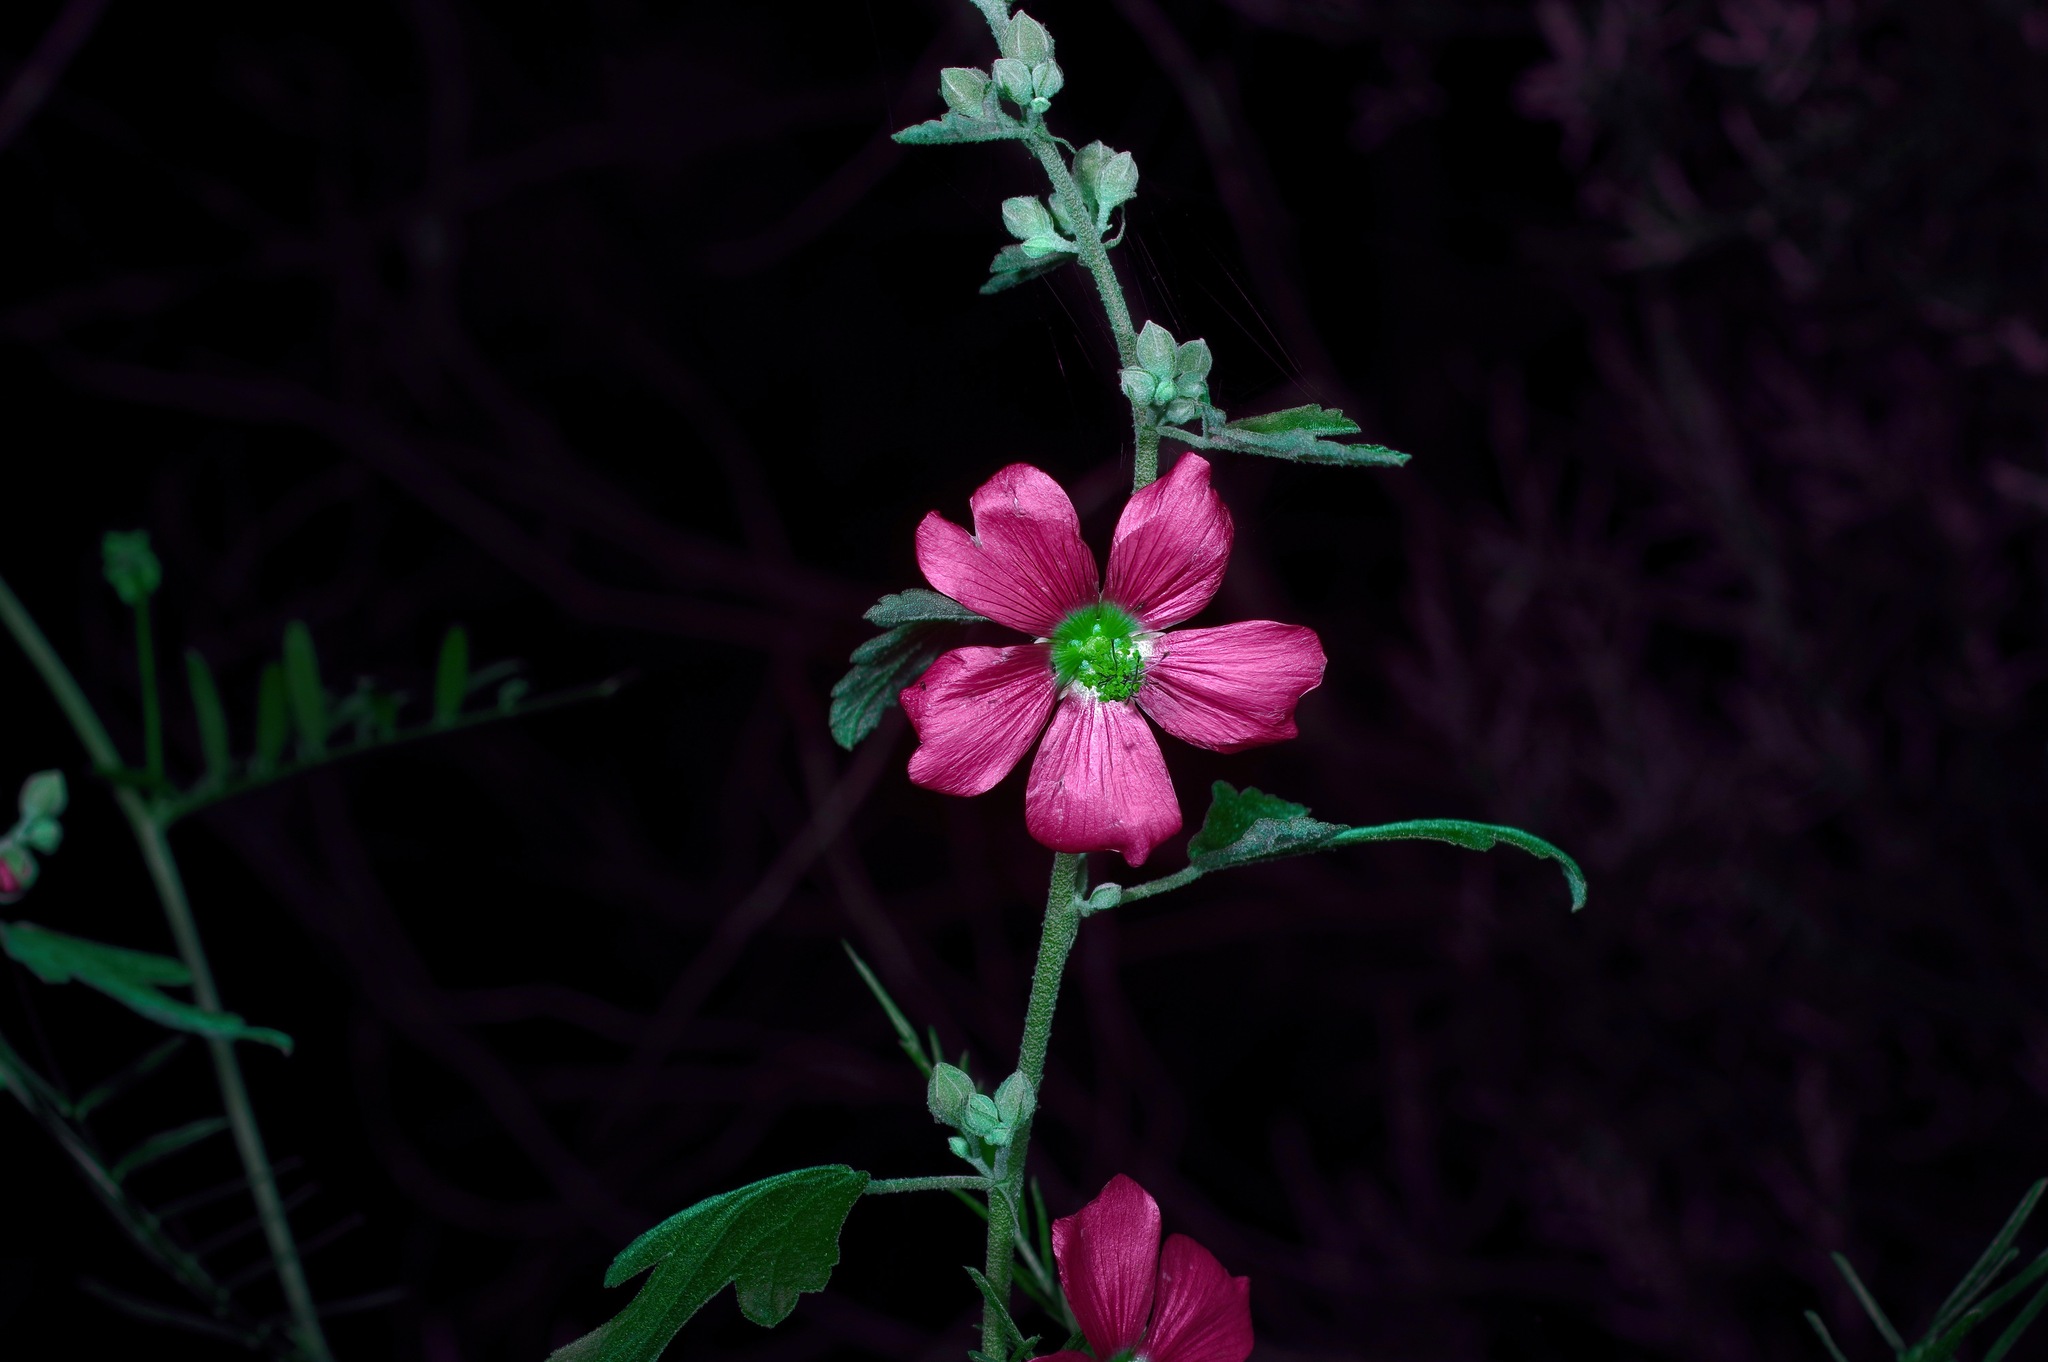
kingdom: Plantae
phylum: Tracheophyta
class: Magnoliopsida
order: Malvales
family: Malvaceae
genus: Sphaeralcea
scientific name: Sphaeralcea fendleri
